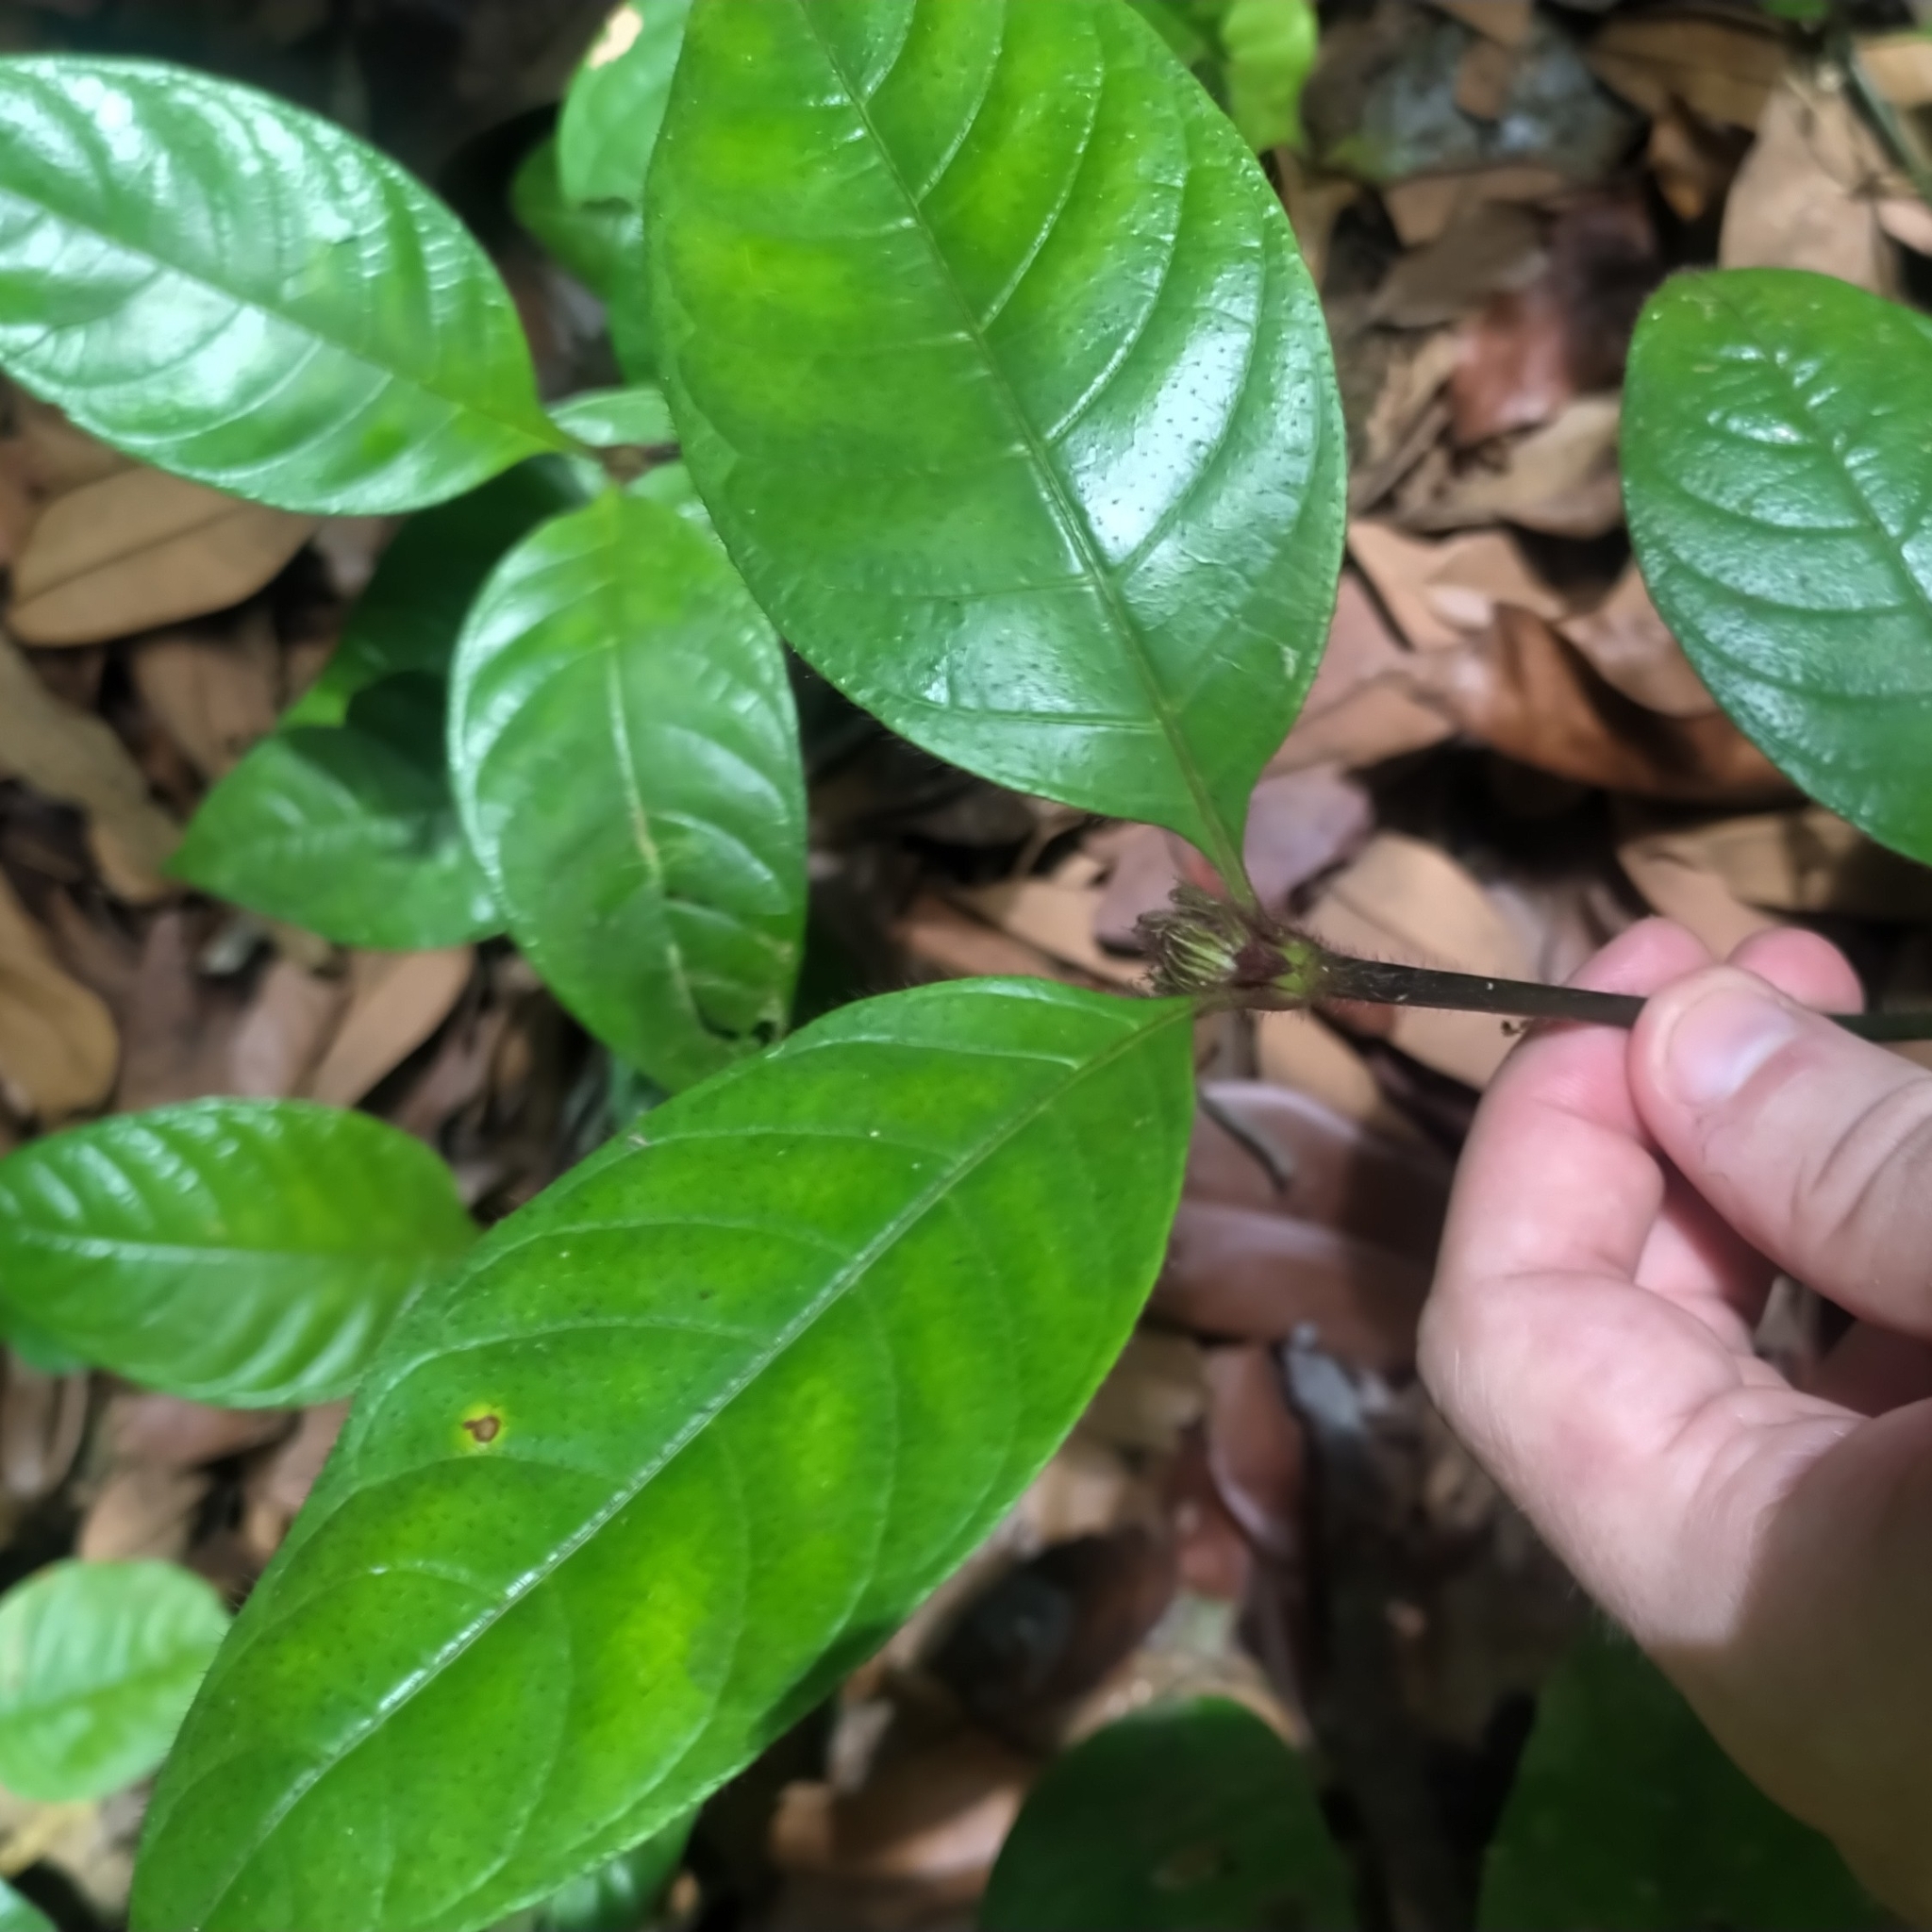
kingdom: Plantae
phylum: Tracheophyta
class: Magnoliopsida
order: Gentianales
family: Rubiaceae
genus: Palicourea
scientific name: Palicourea glabra
